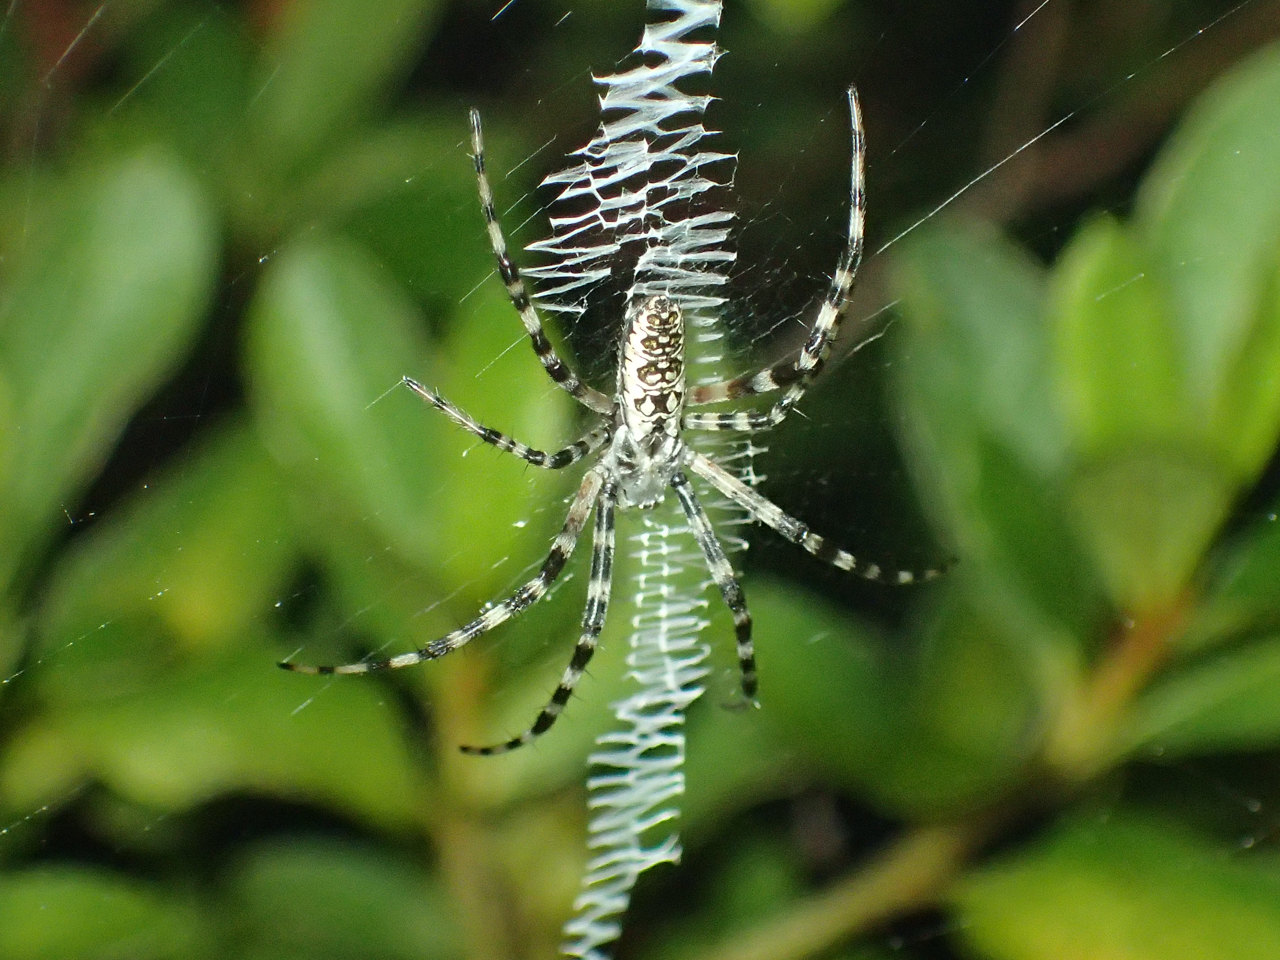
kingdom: Animalia
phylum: Arthropoda
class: Arachnida
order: Araneae
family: Araneidae
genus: Argiope
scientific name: Argiope aurantia
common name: Orb weavers
